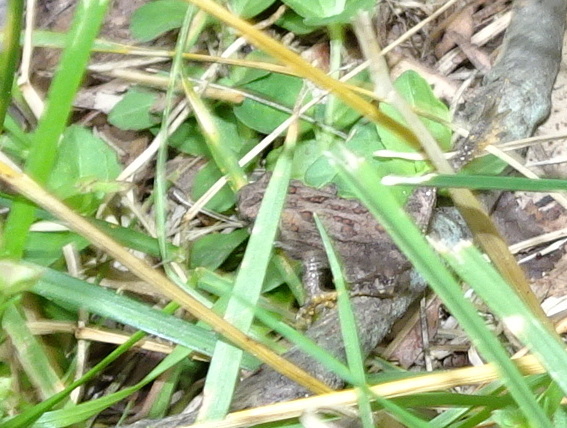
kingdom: Animalia
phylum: Chordata
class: Amphibia
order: Anura
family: Bufonidae
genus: Anaxyrus
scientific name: Anaxyrus americanus
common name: American toad
